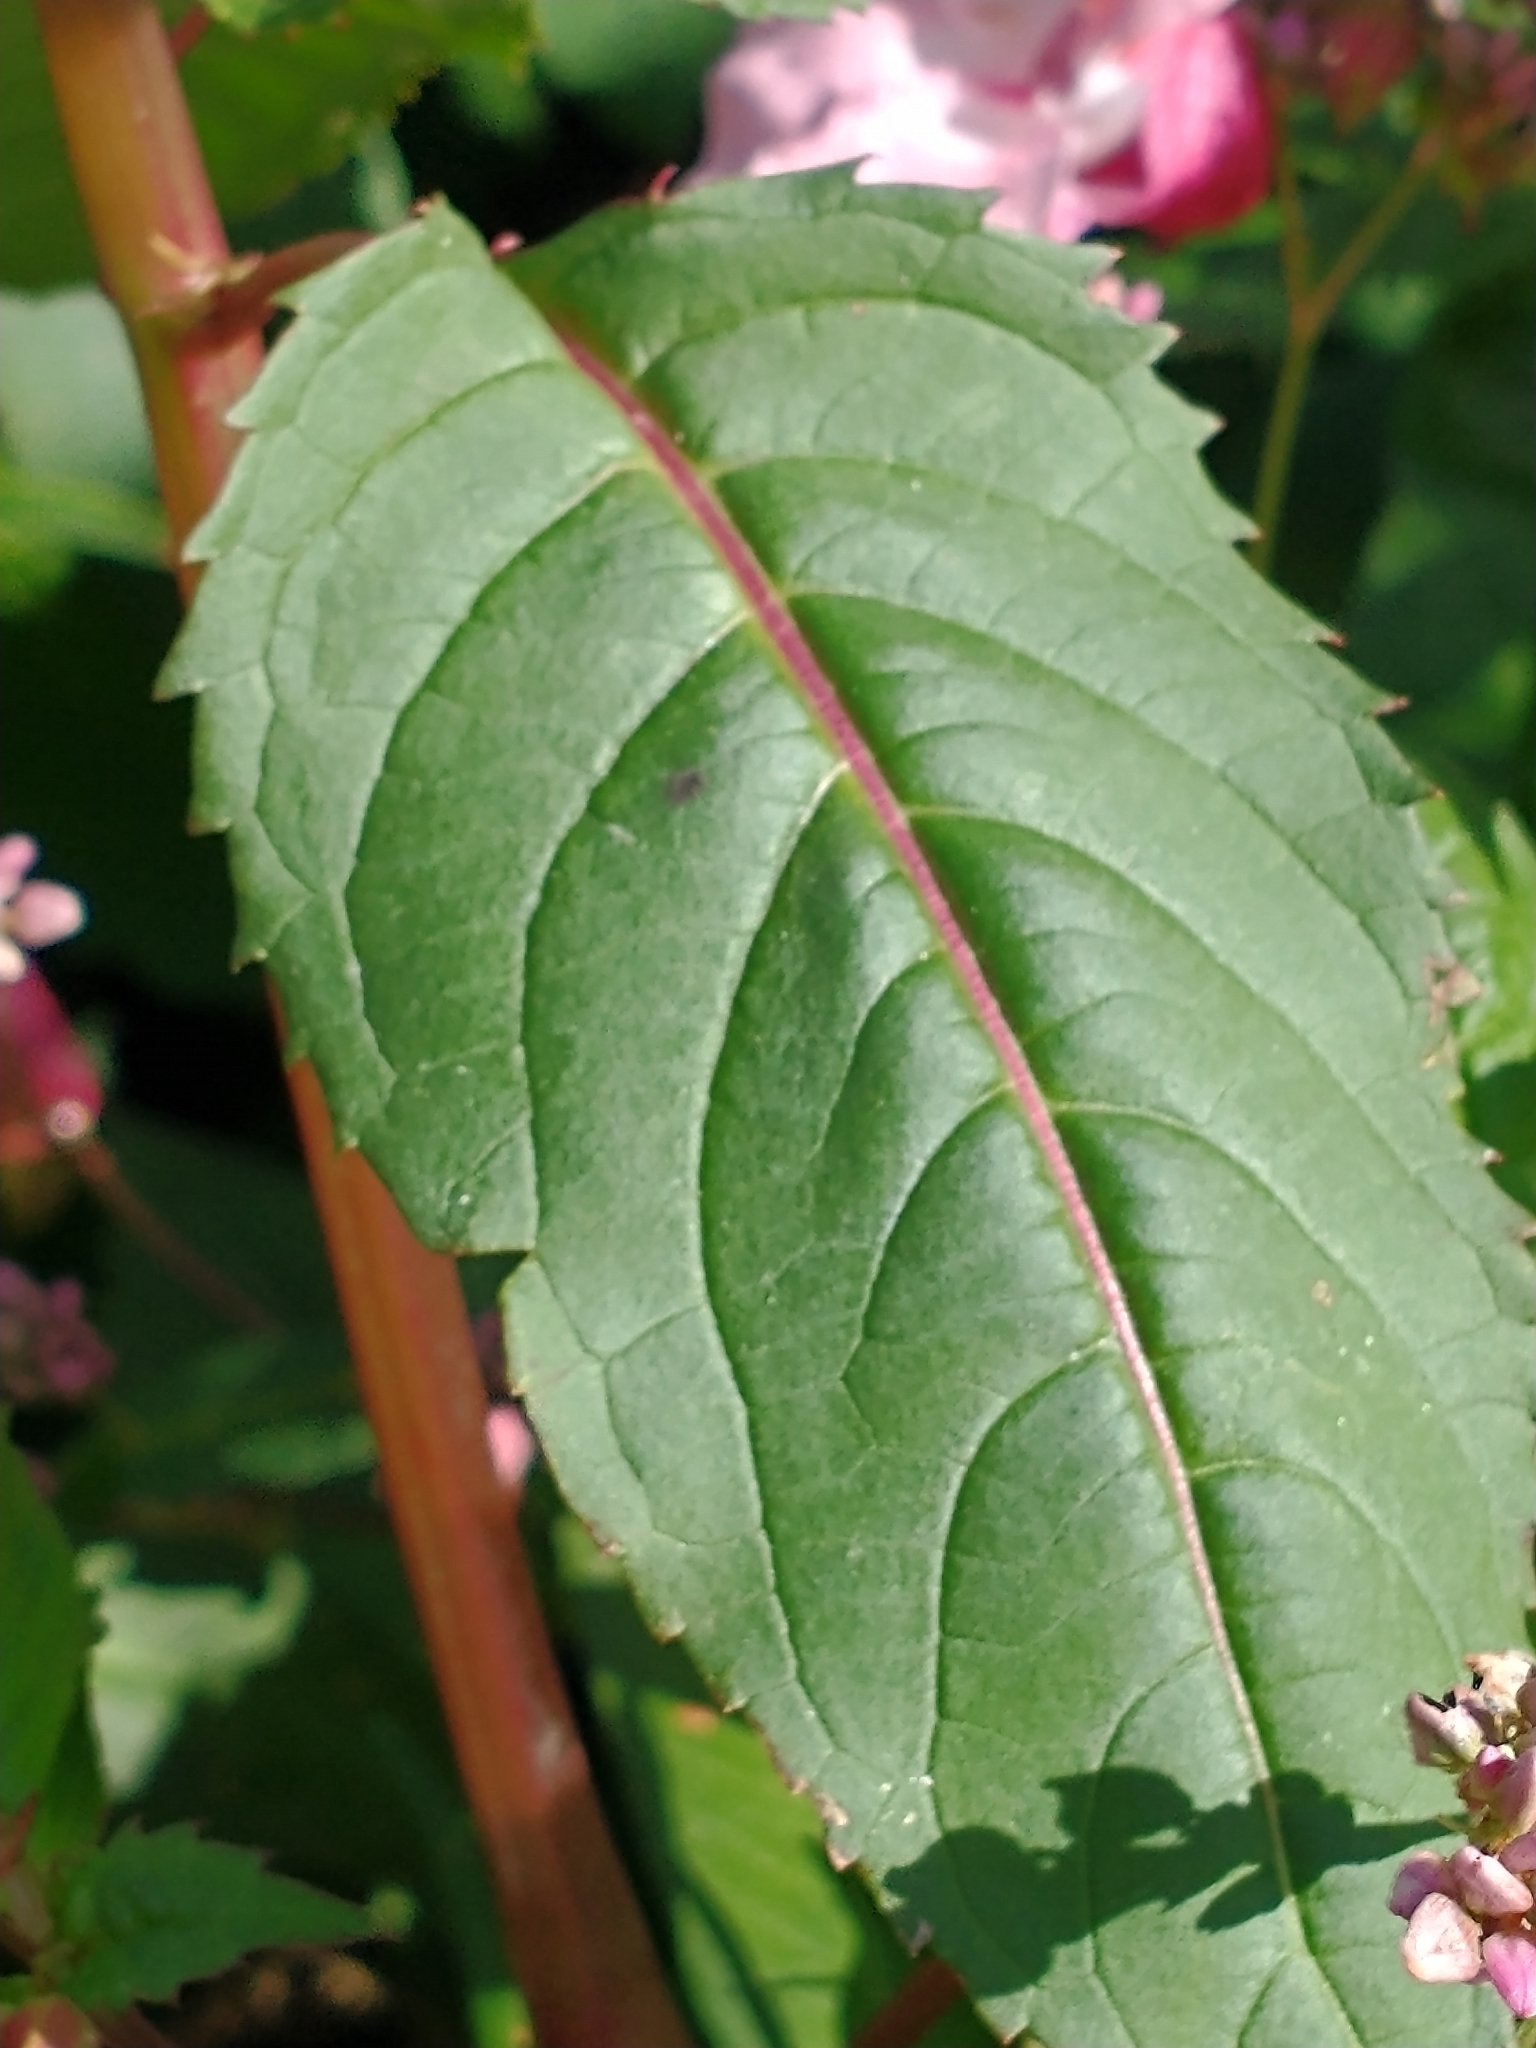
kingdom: Plantae
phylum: Tracheophyta
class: Magnoliopsida
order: Ericales
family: Balsaminaceae
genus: Impatiens
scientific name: Impatiens glandulifera
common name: Himalayan balsam
